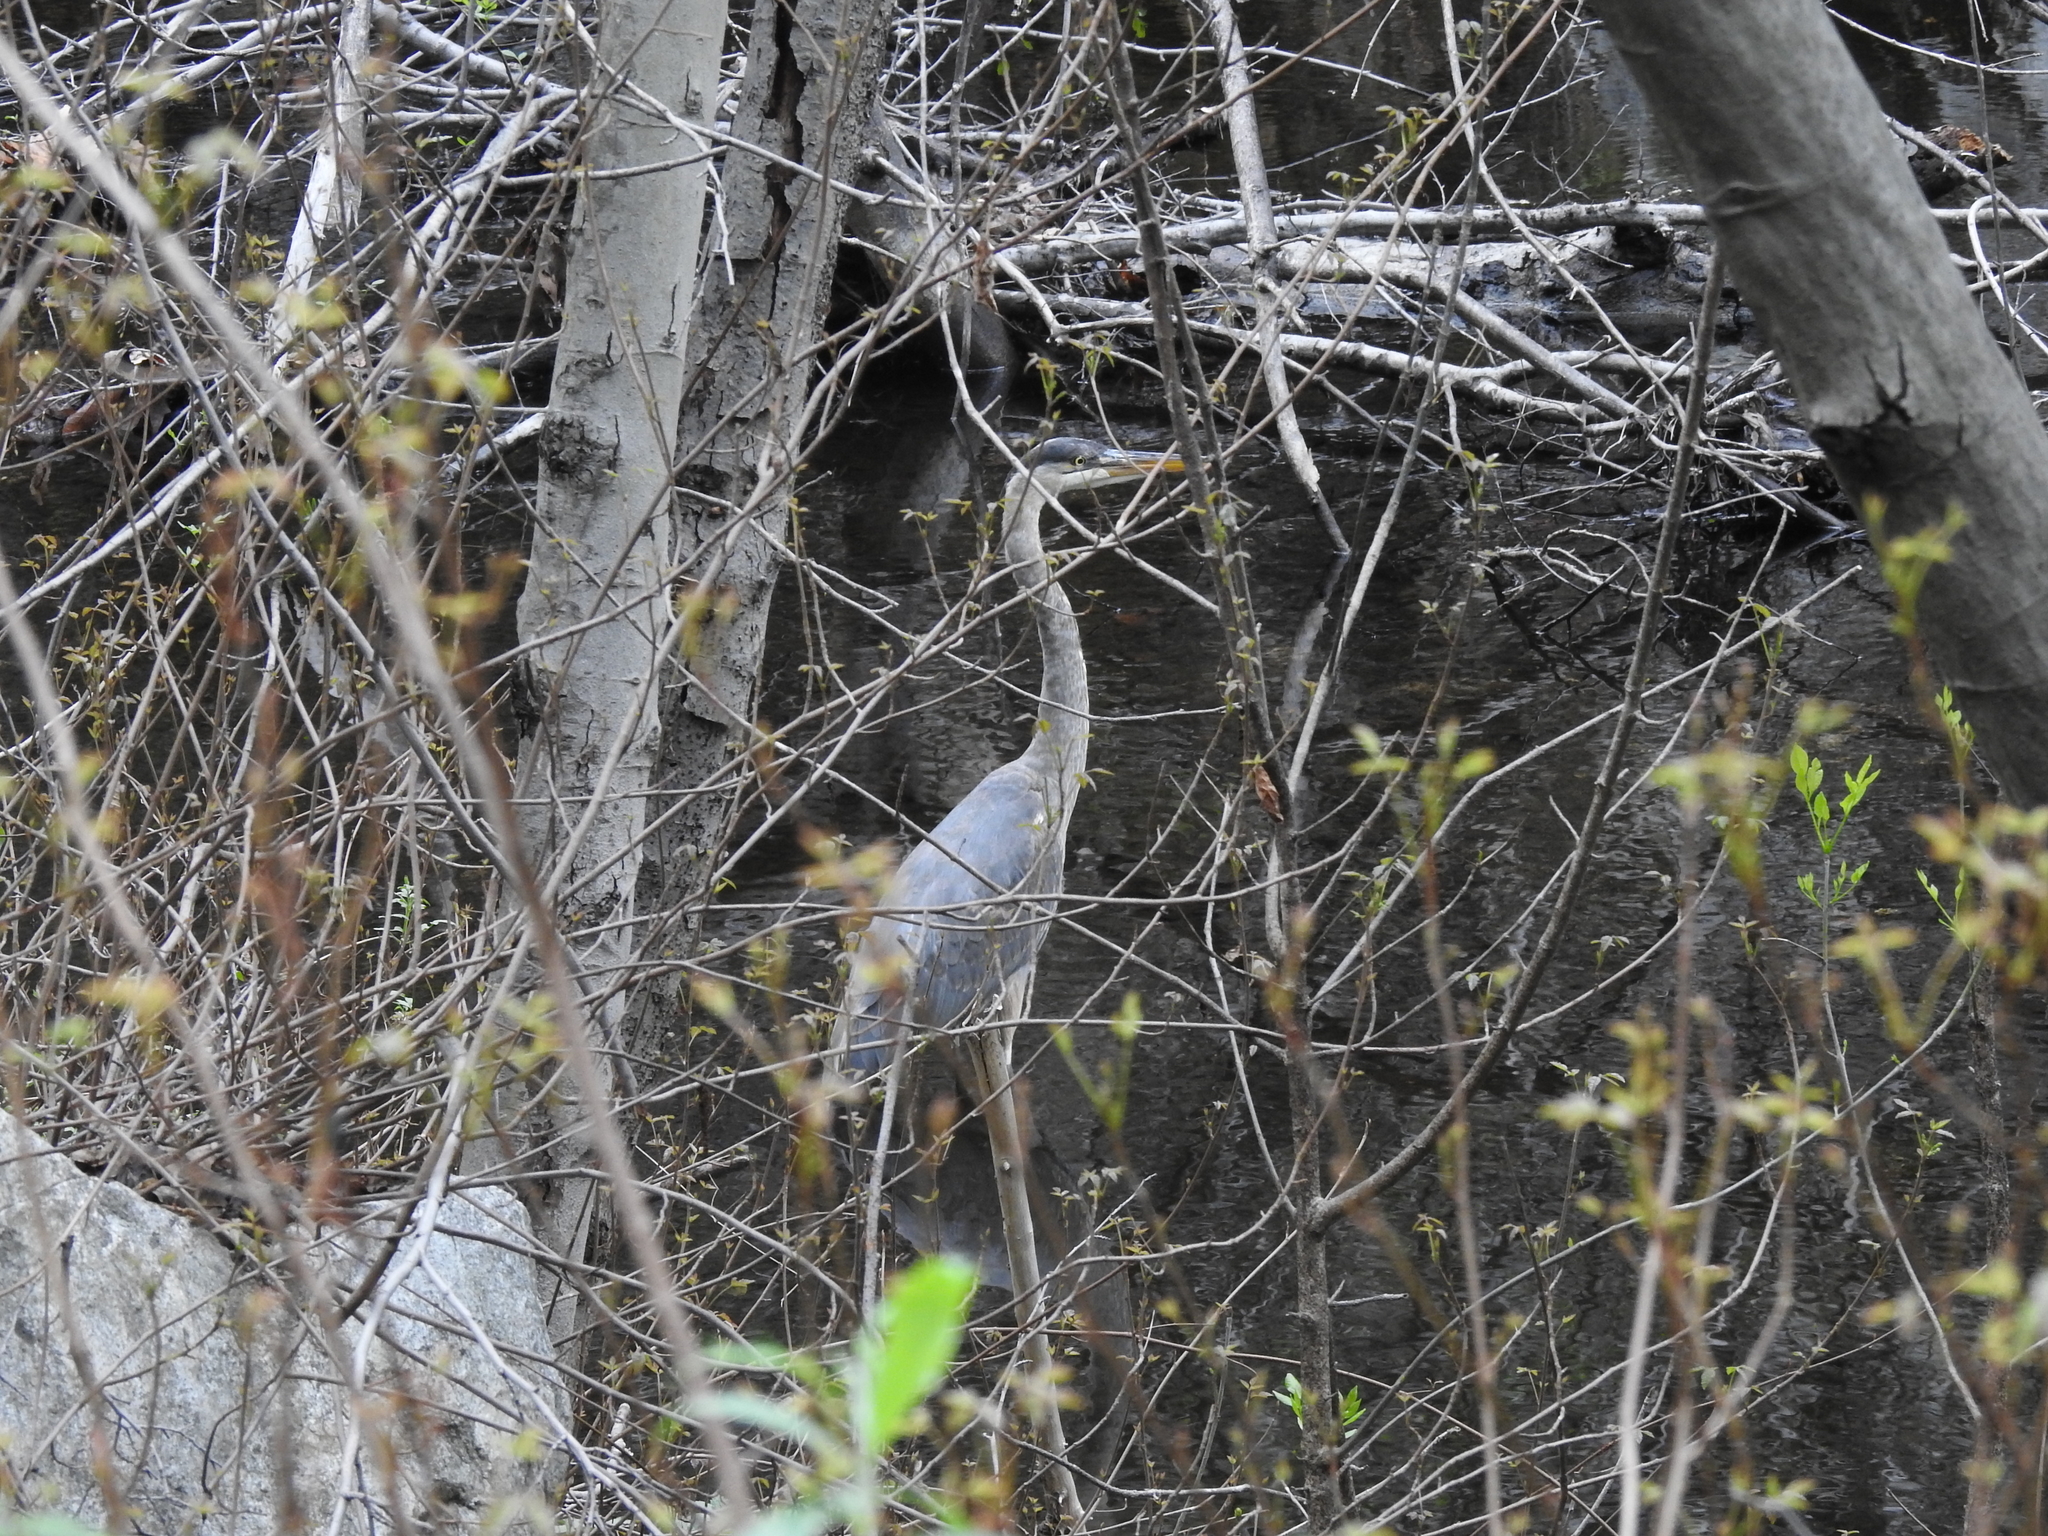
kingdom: Animalia
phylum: Chordata
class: Aves
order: Pelecaniformes
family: Ardeidae
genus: Ardea
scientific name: Ardea herodias
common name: Great blue heron
